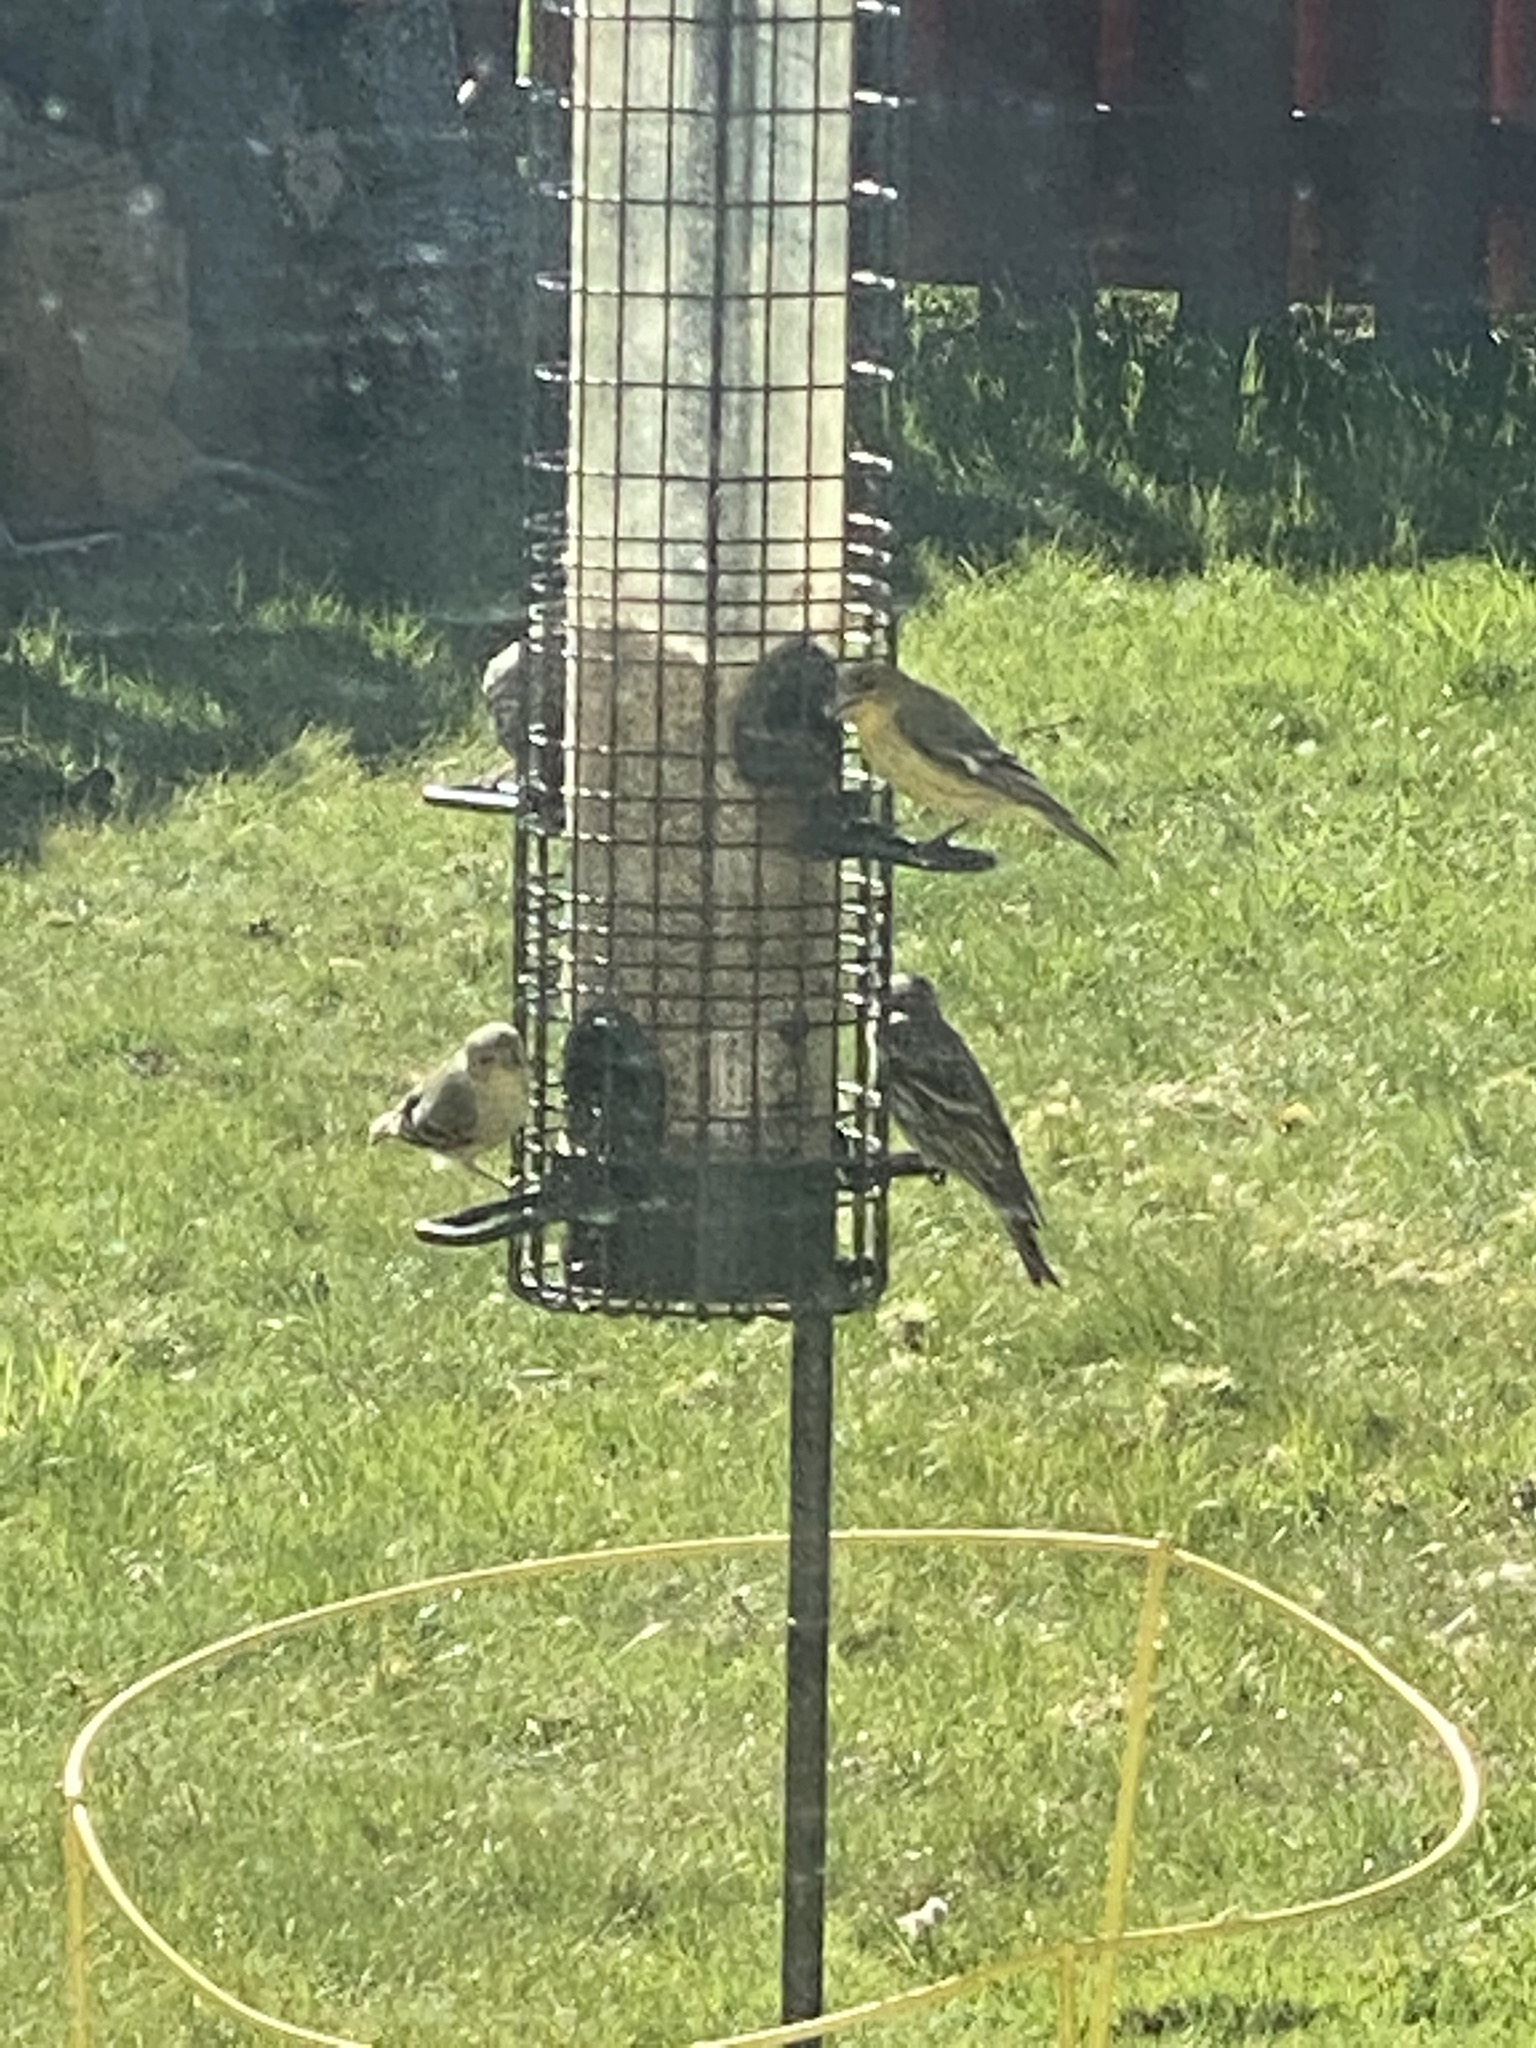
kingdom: Animalia
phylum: Chordata
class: Aves
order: Passeriformes
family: Fringillidae
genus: Spinus
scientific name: Spinus pinus
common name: Pine siskin
